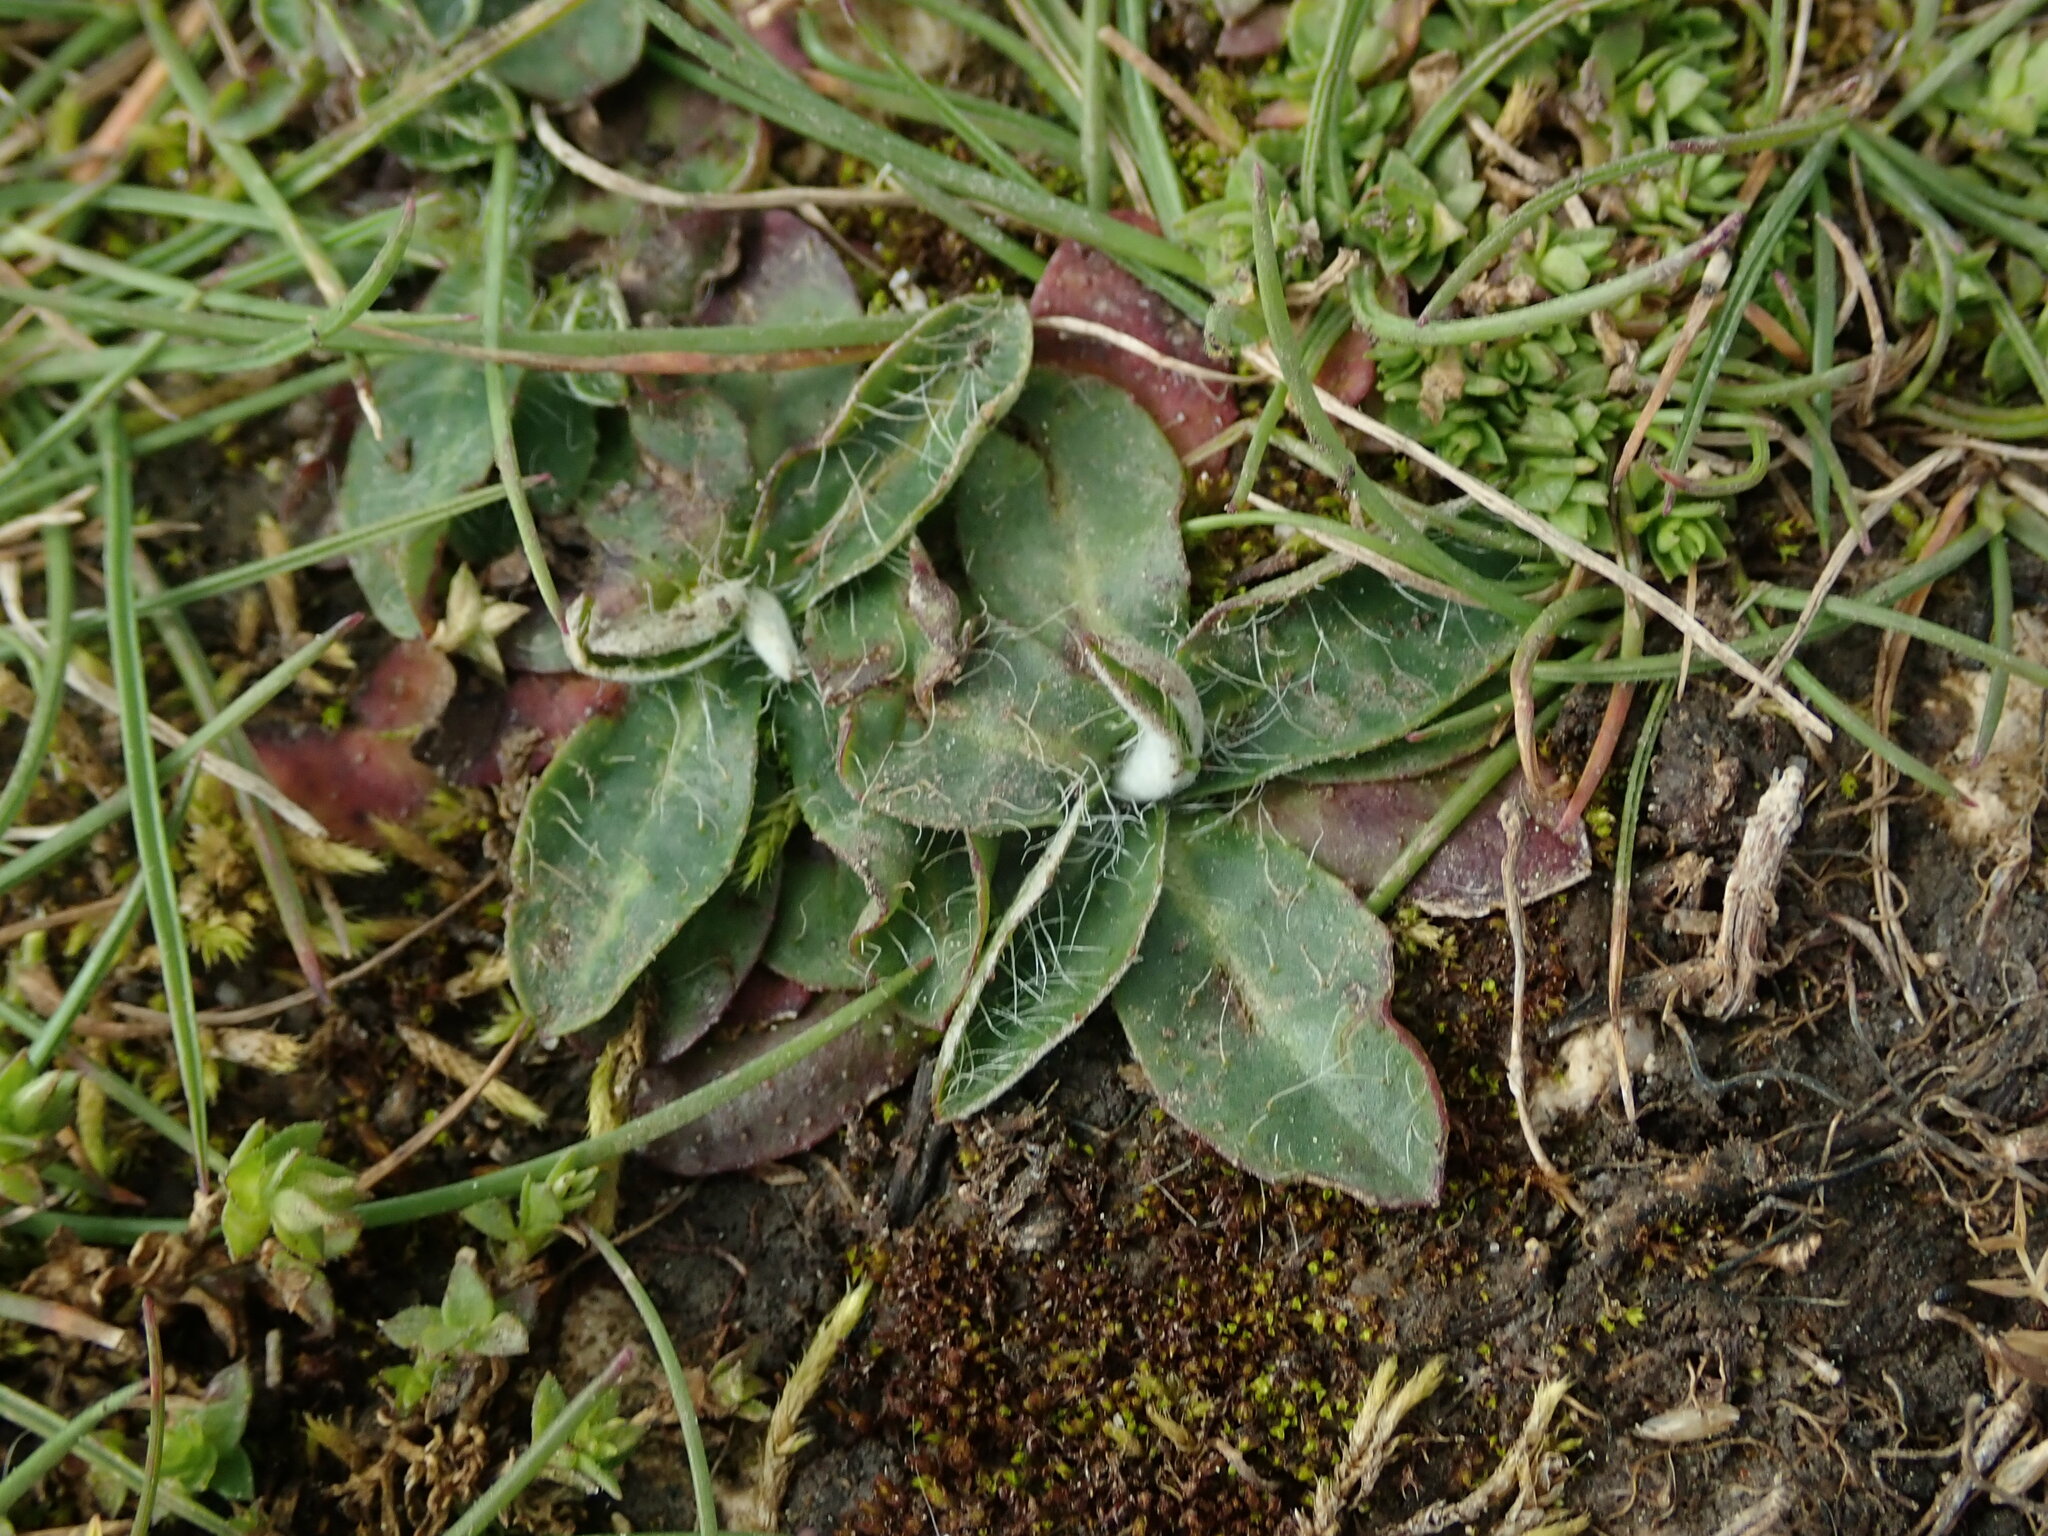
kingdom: Plantae
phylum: Tracheophyta
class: Magnoliopsida
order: Asterales
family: Asteraceae
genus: Pilosella
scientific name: Pilosella officinarum
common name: Mouse-ear hawkweed
